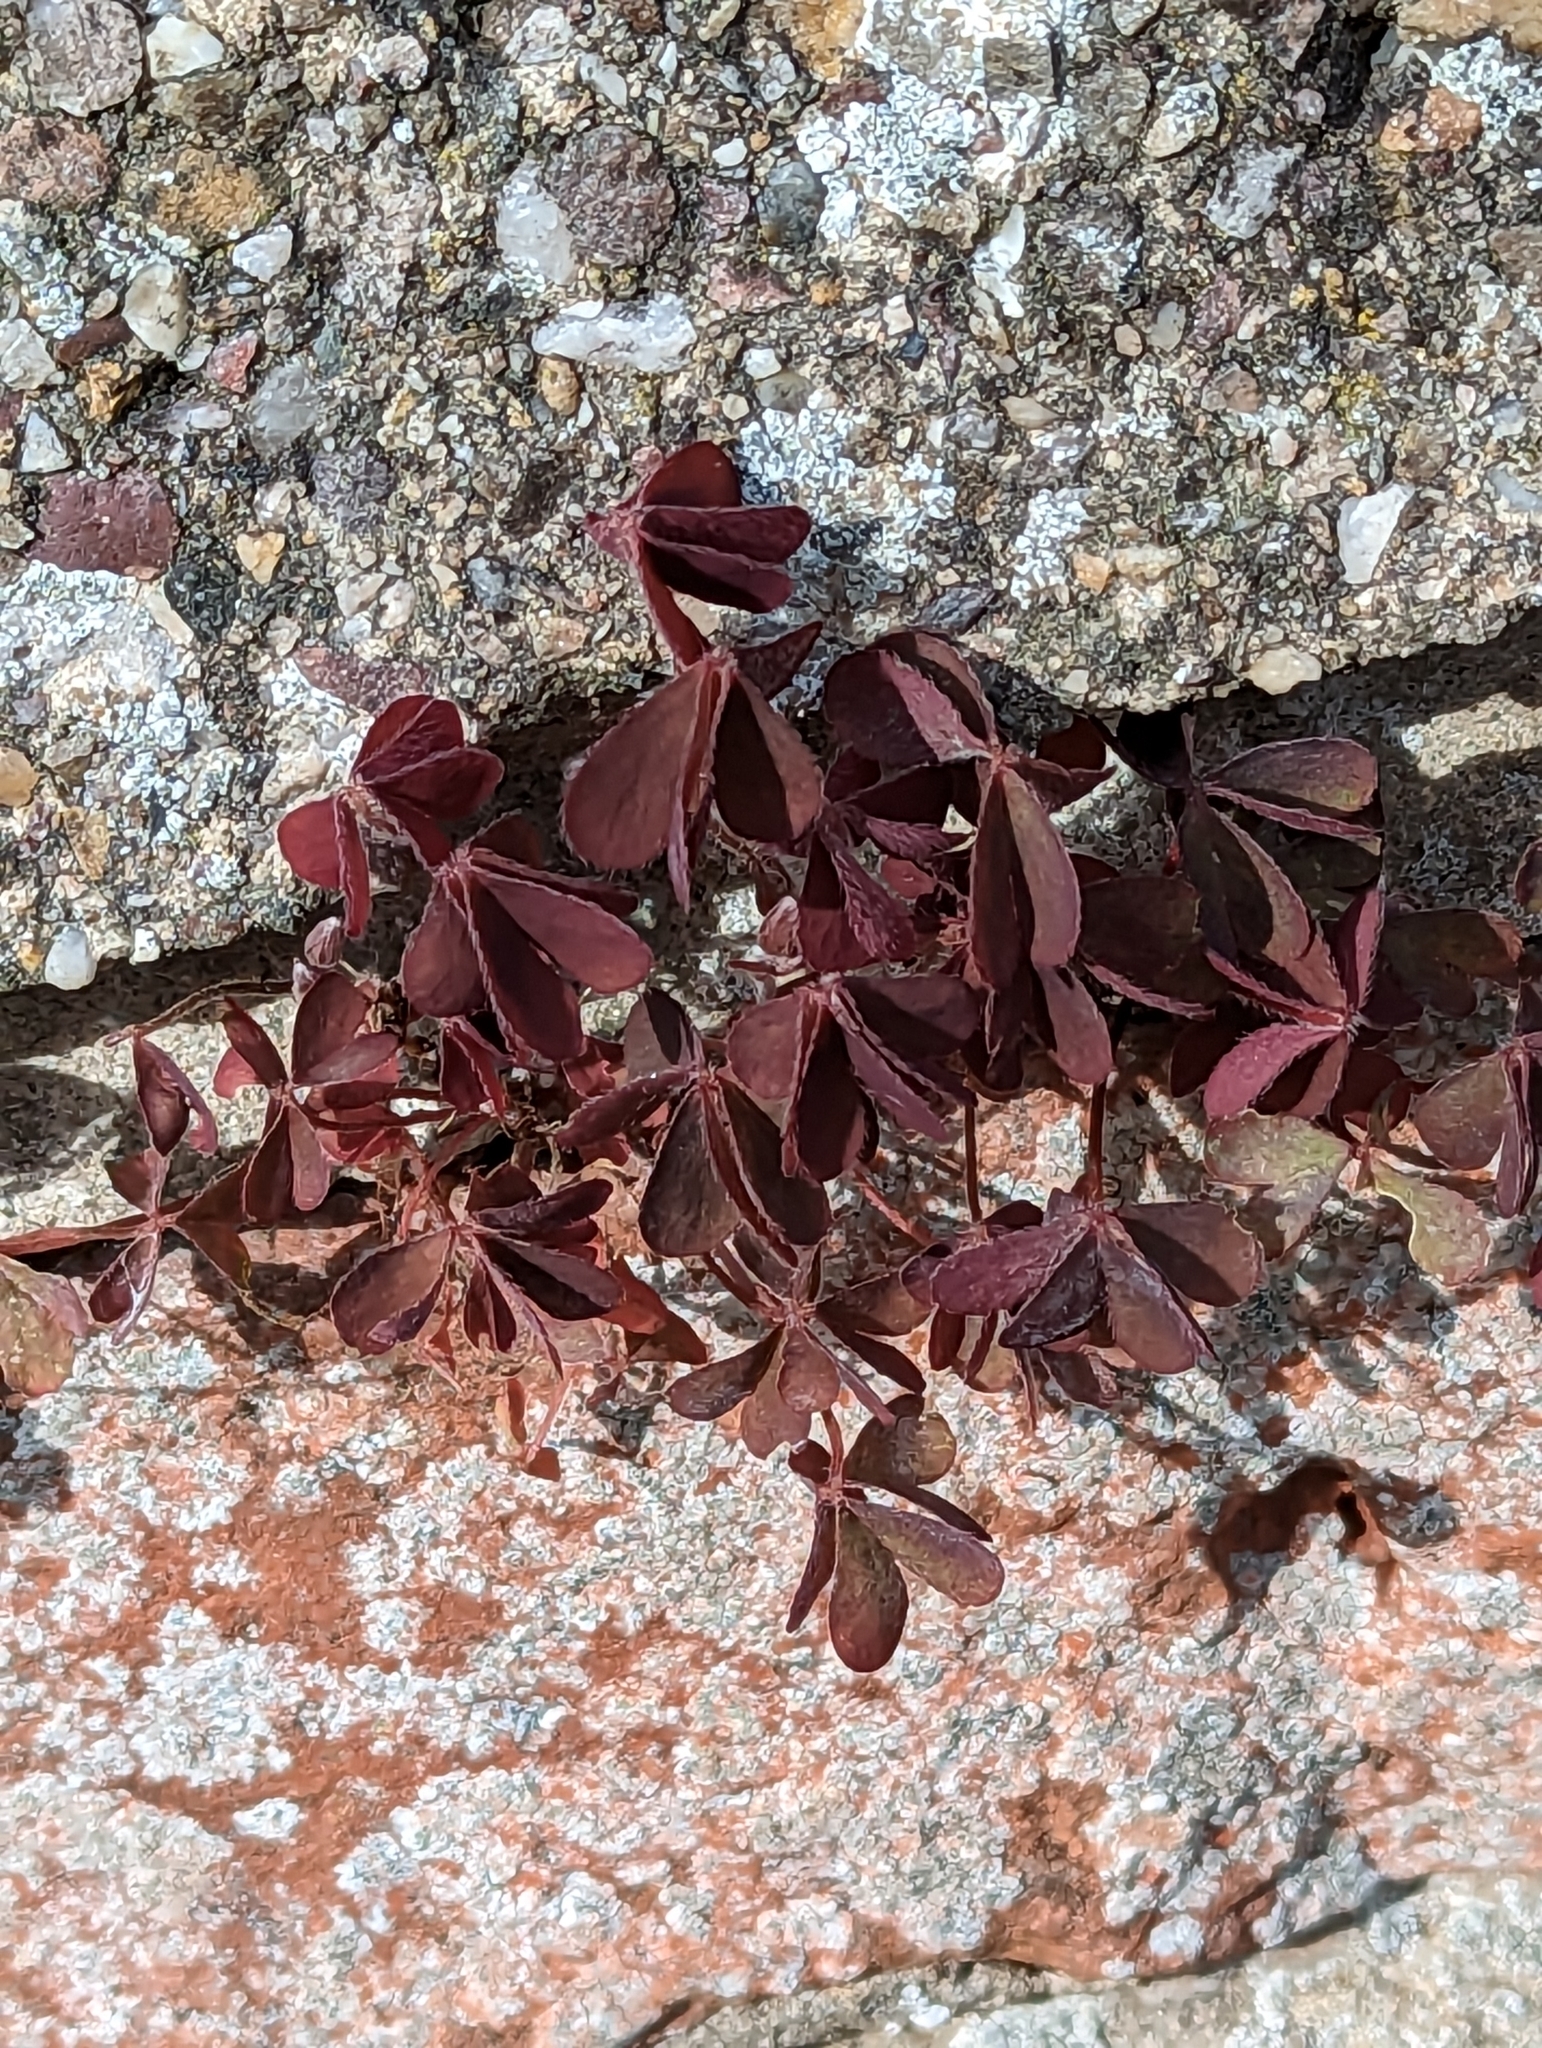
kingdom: Plantae
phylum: Tracheophyta
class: Magnoliopsida
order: Oxalidales
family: Oxalidaceae
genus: Oxalis
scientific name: Oxalis corniculata
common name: Procumbent yellow-sorrel
